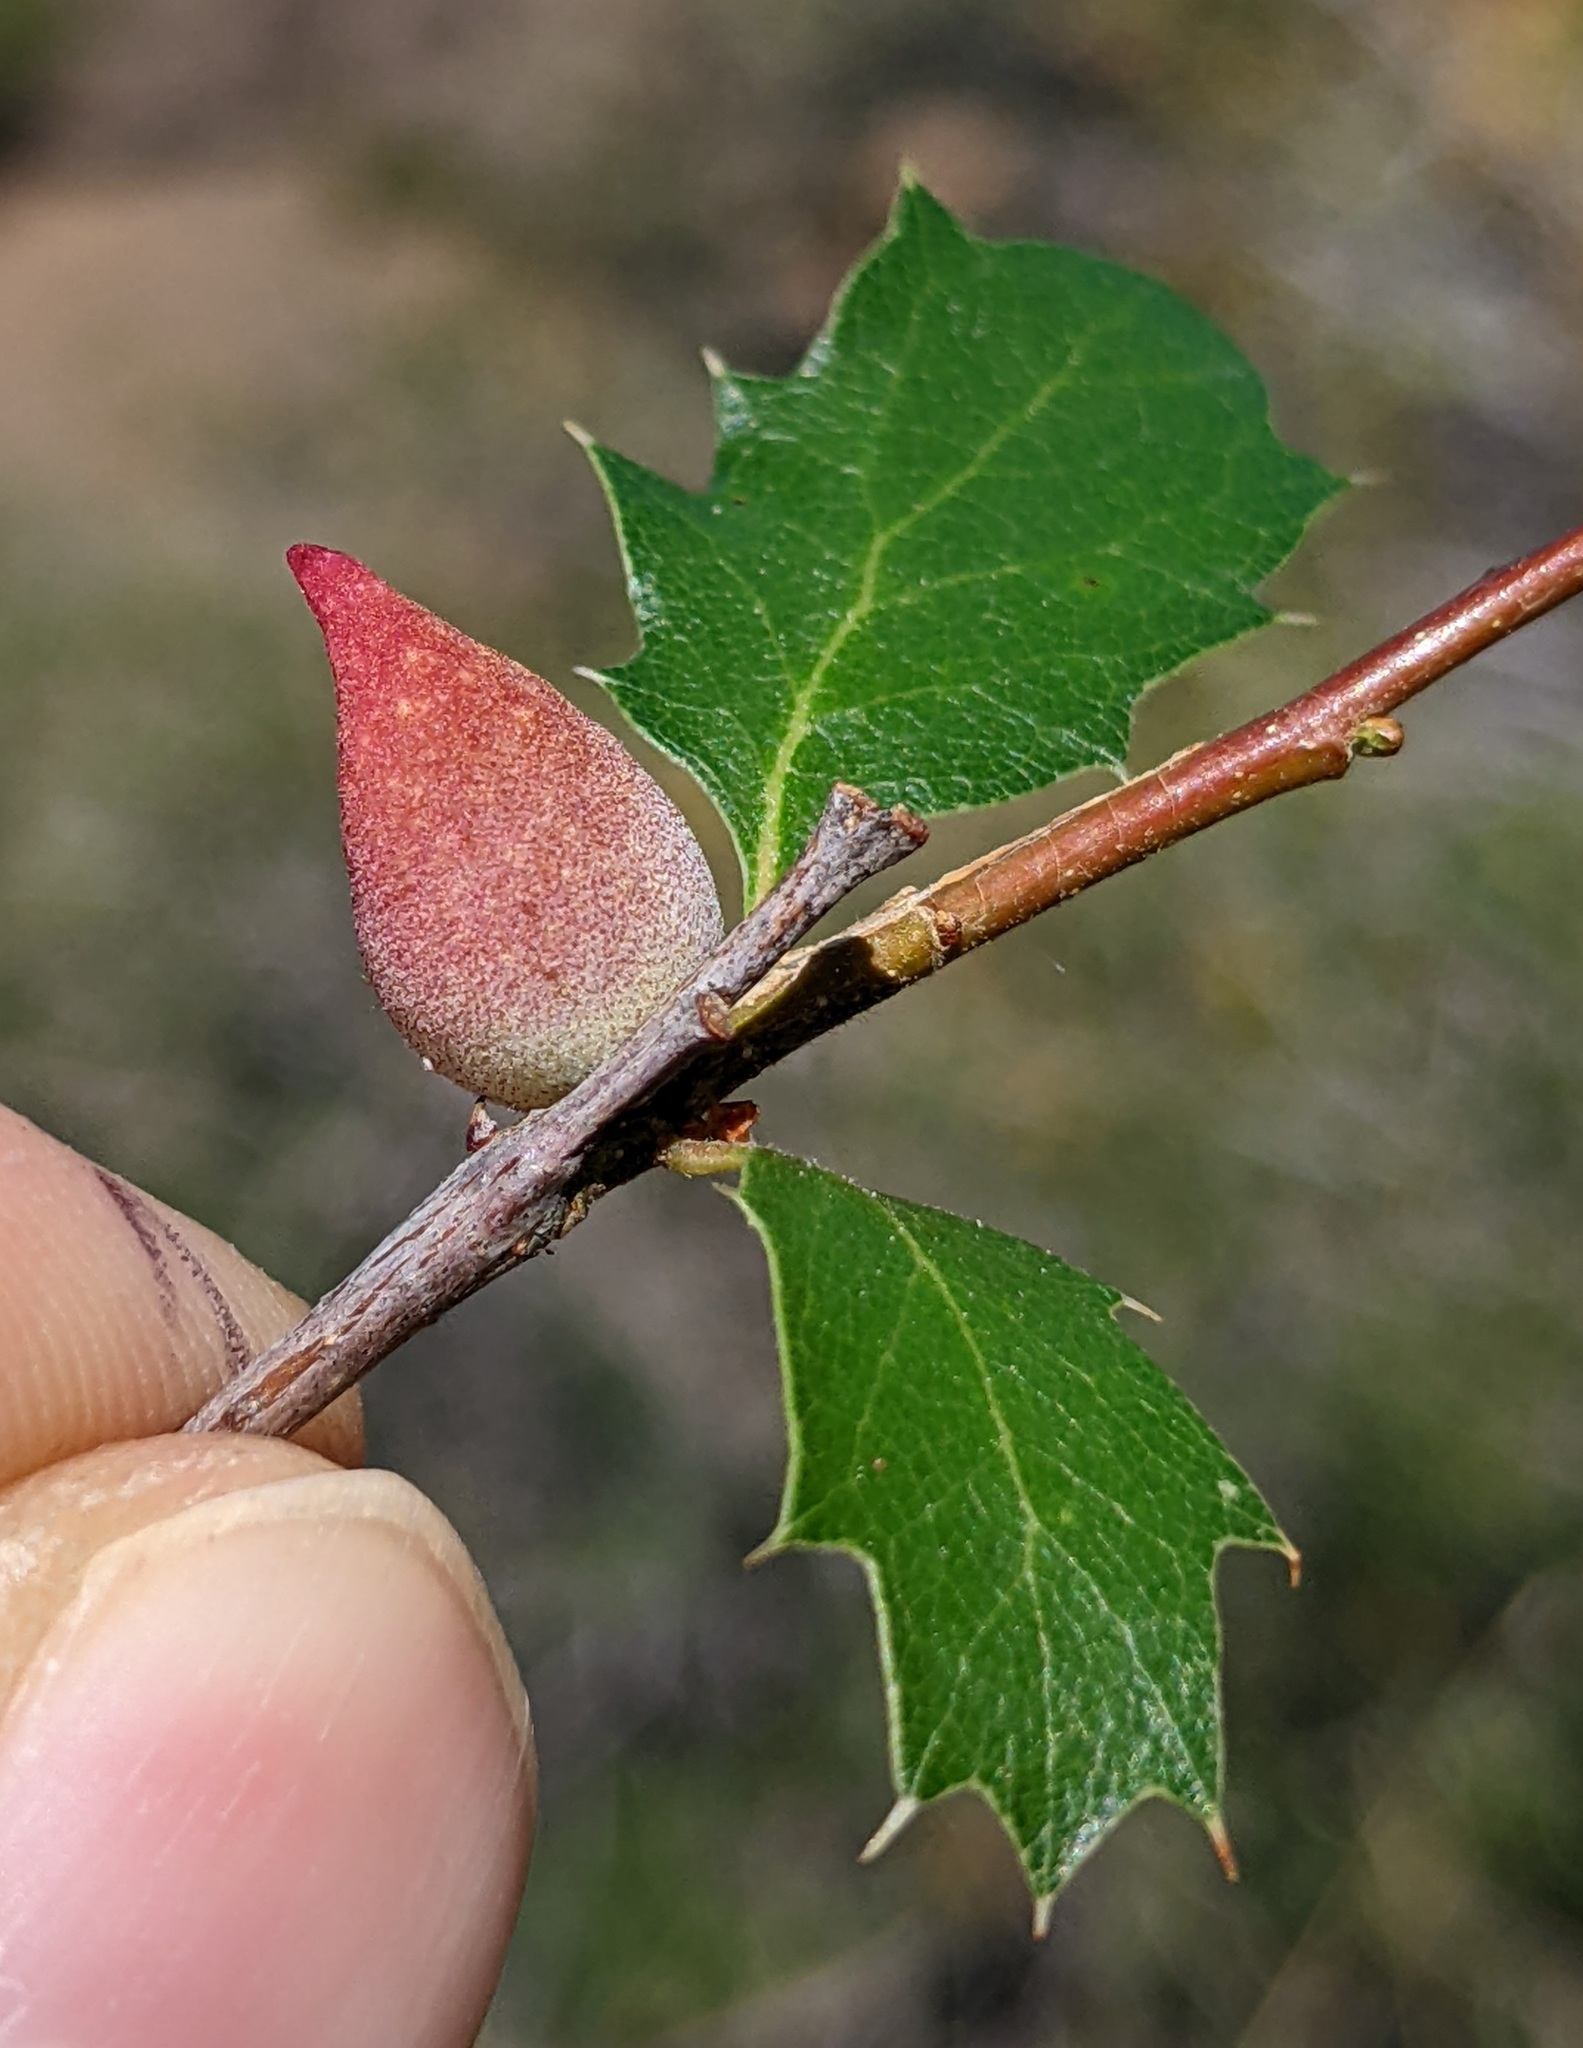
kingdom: Animalia
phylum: Arthropoda
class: Insecta
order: Hymenoptera
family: Cynipidae
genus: Burnettweldia
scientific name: Burnettweldia
